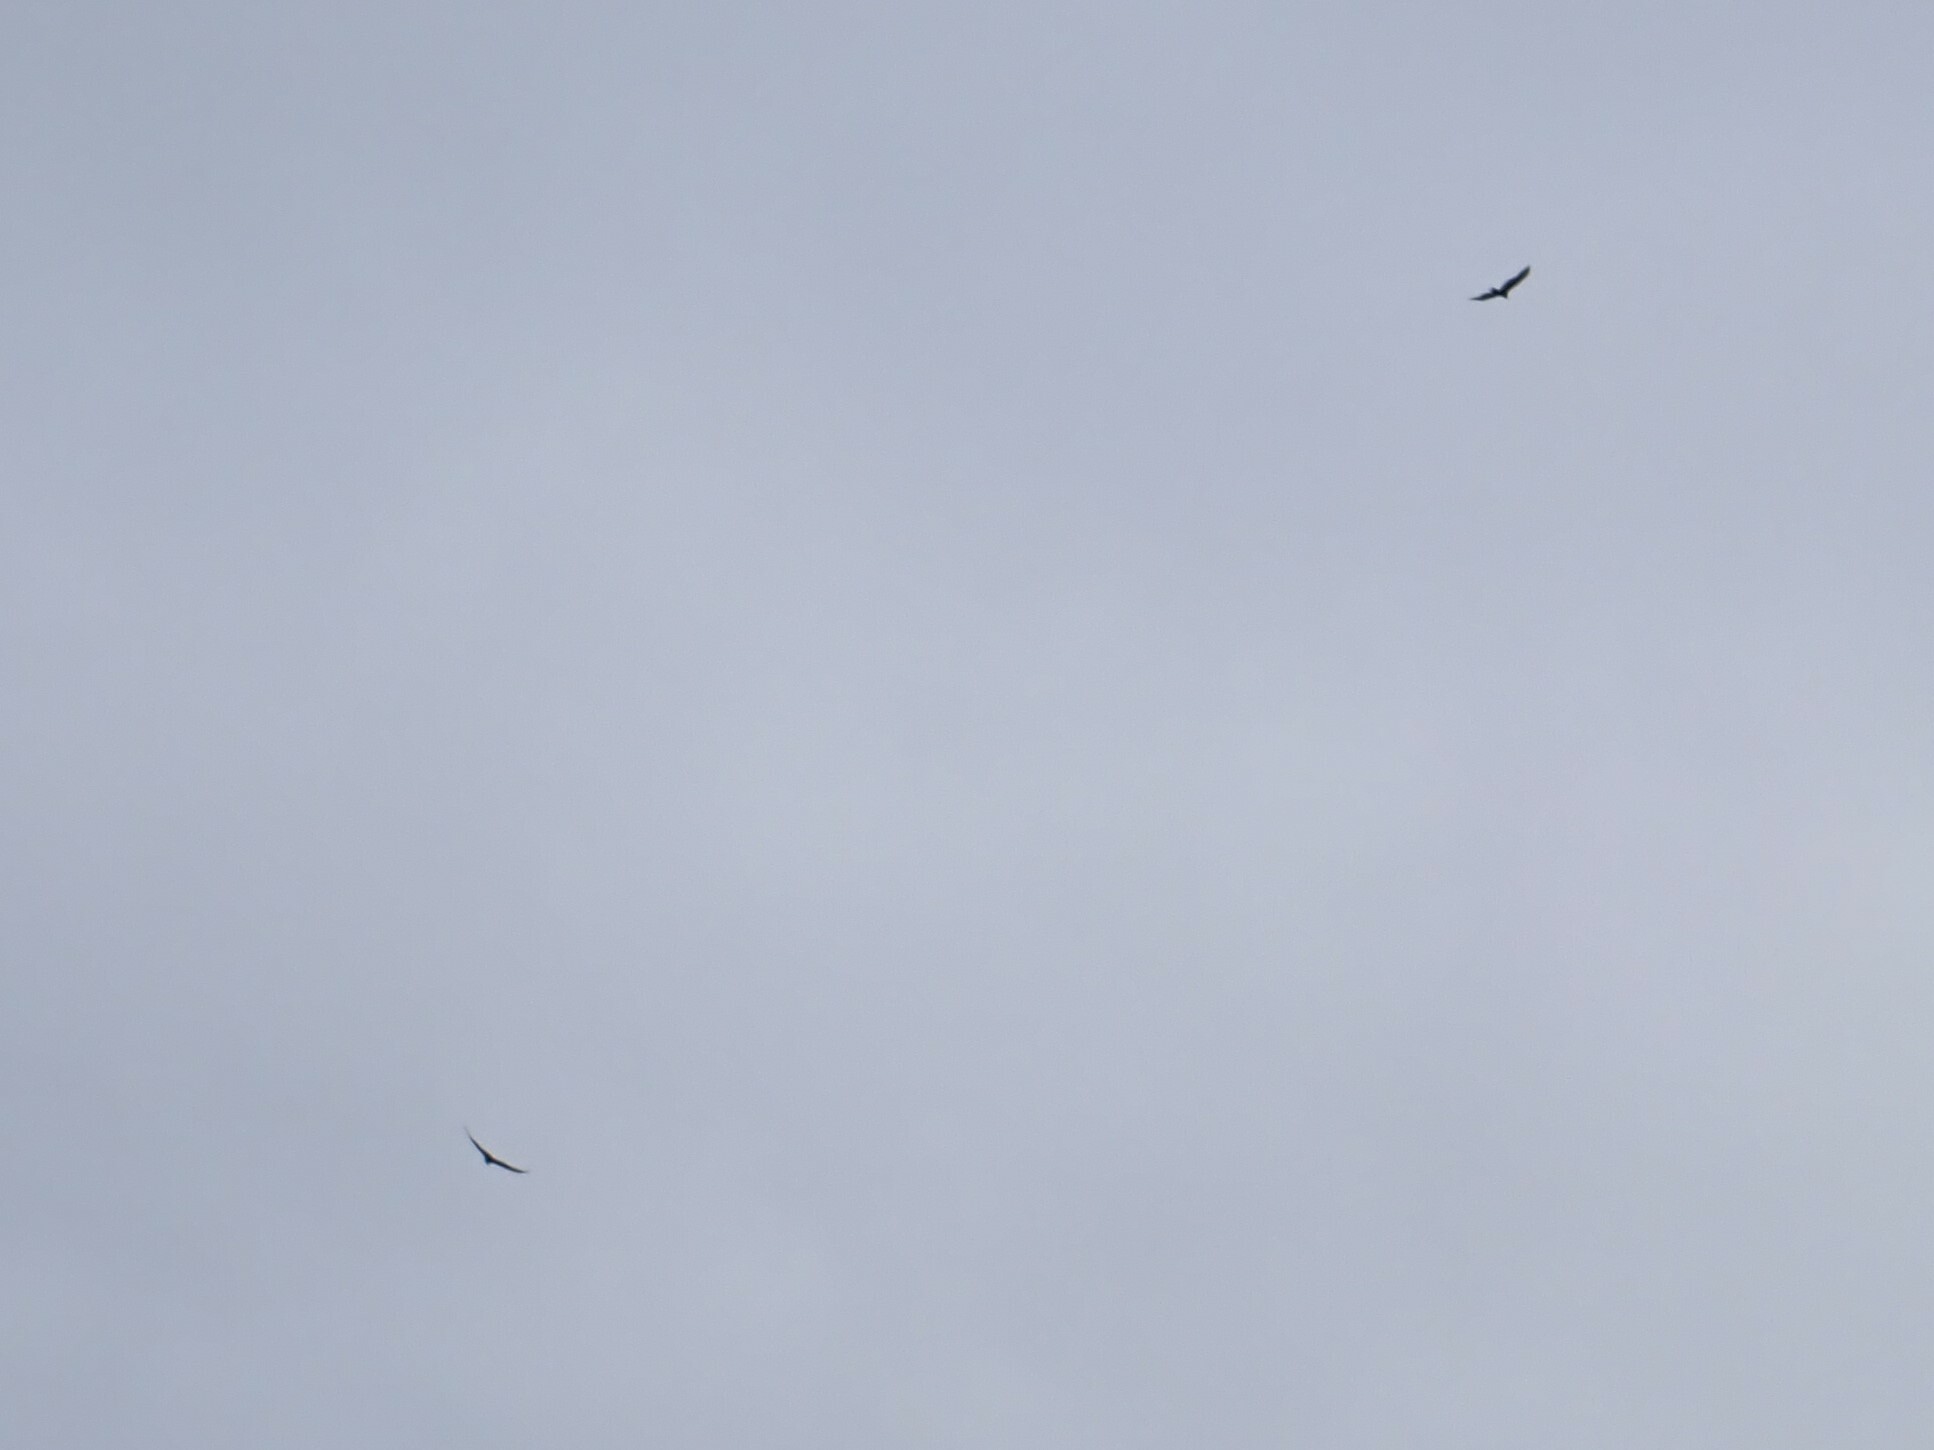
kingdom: Animalia
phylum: Chordata
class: Aves
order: Accipitriformes
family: Cathartidae
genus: Cathartes
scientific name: Cathartes aura
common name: Turkey vulture
